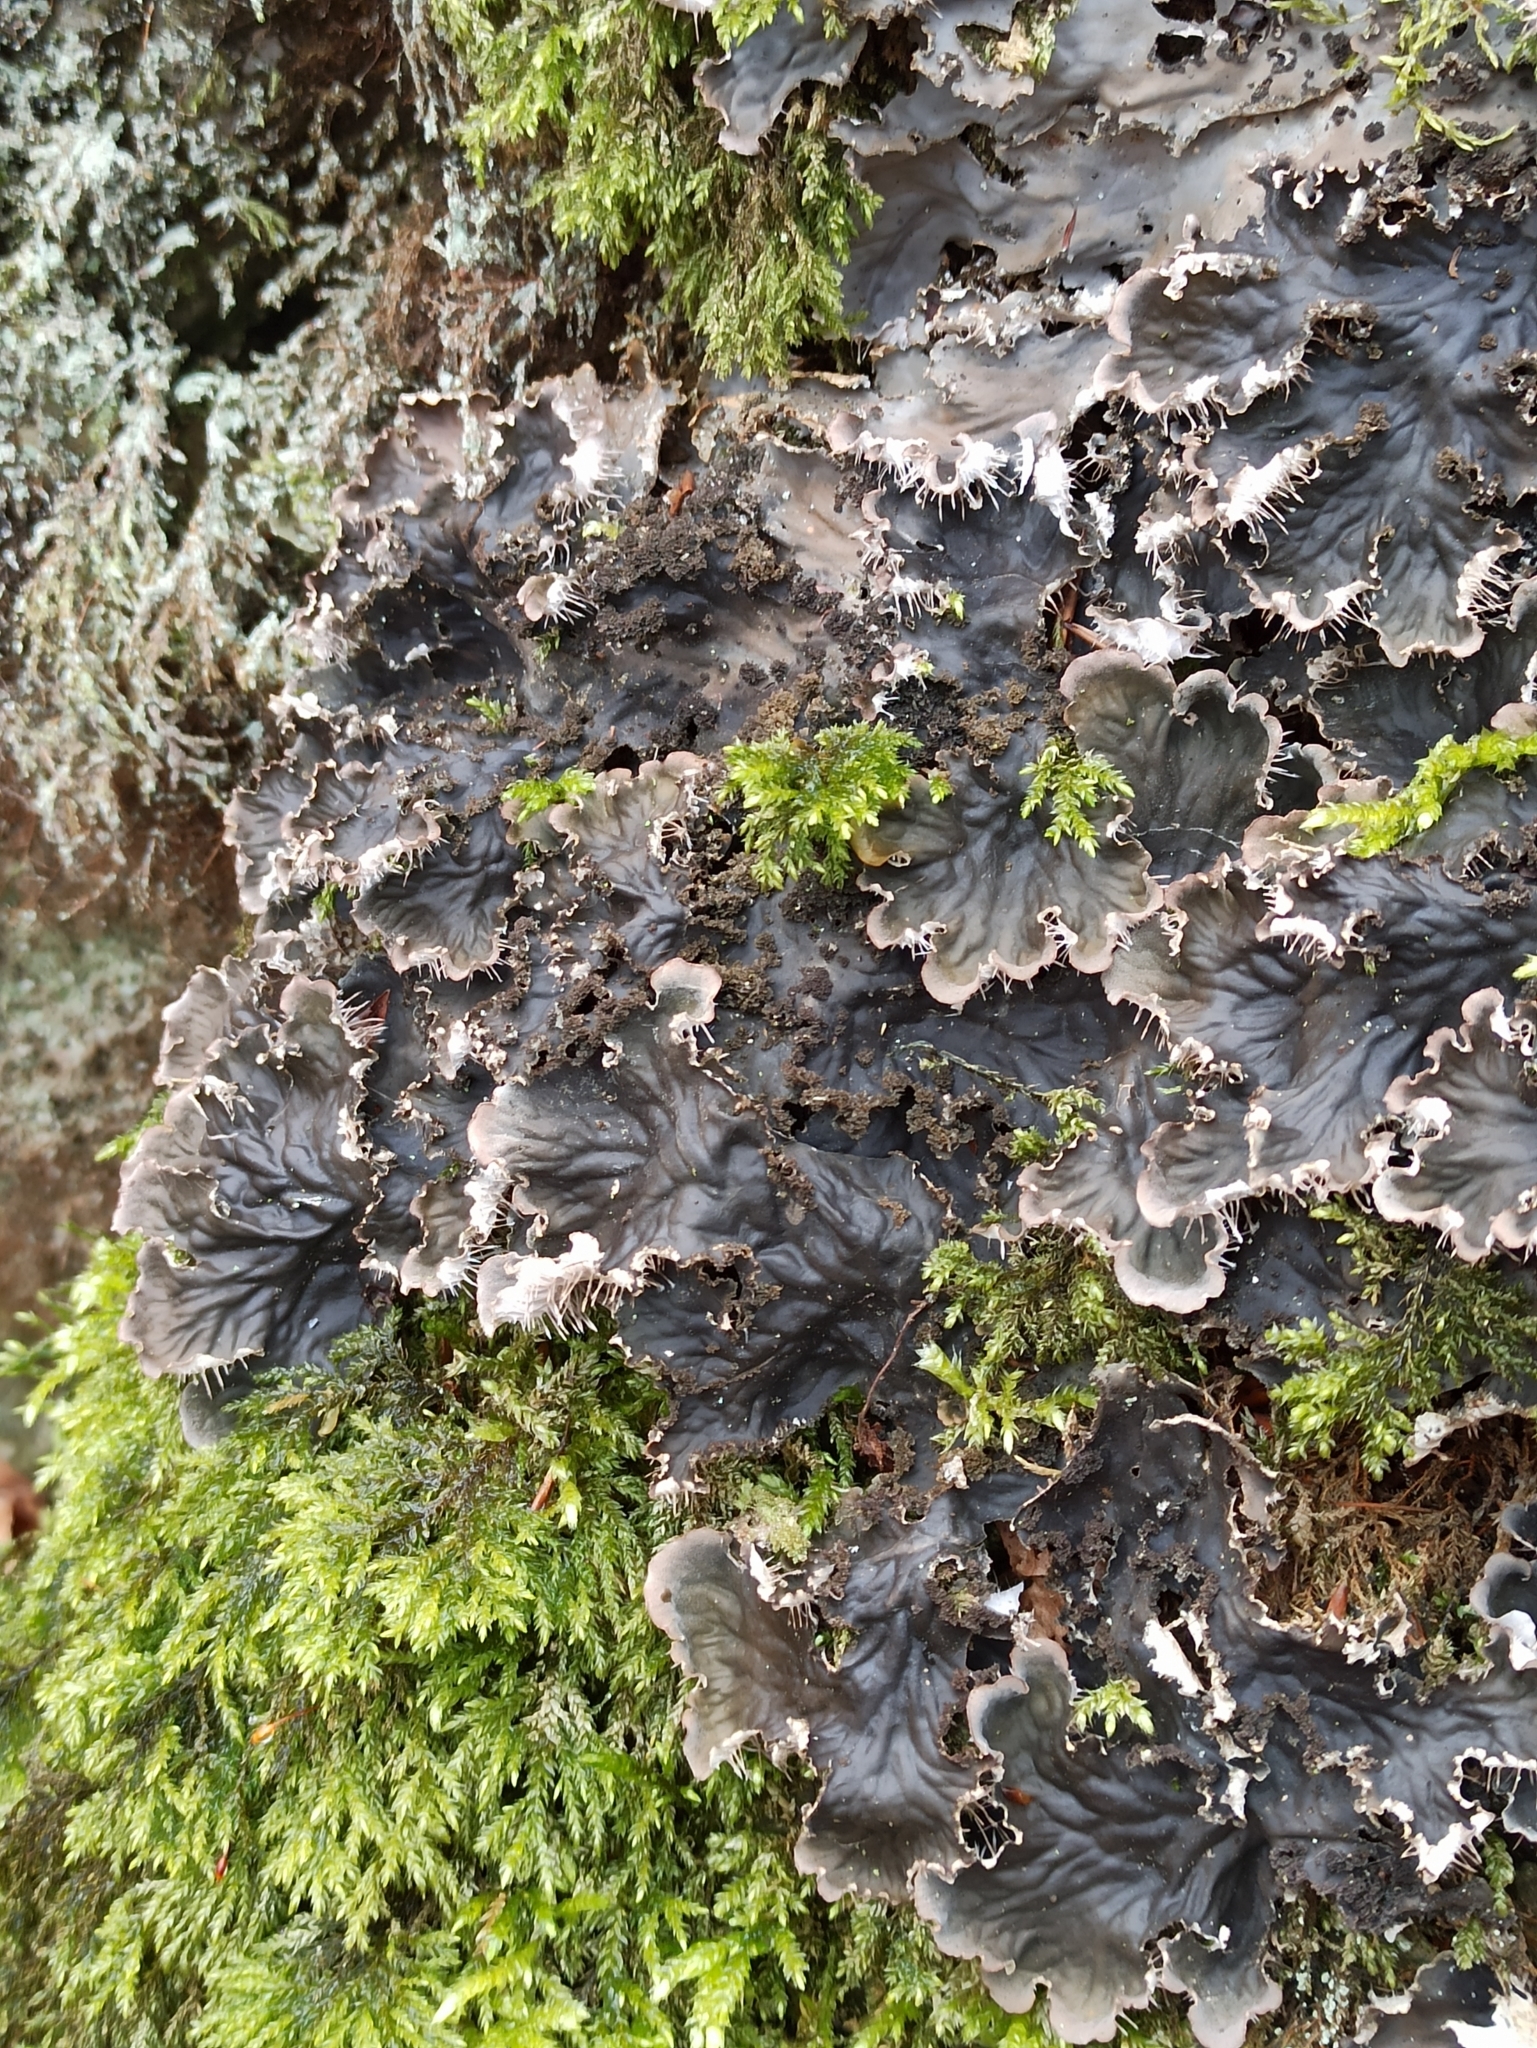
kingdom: Fungi
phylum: Ascomycota
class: Lecanoromycetes
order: Peltigerales
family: Peltigeraceae
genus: Peltigera
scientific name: Peltigera praetextata
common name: Scaly dog-lichen
